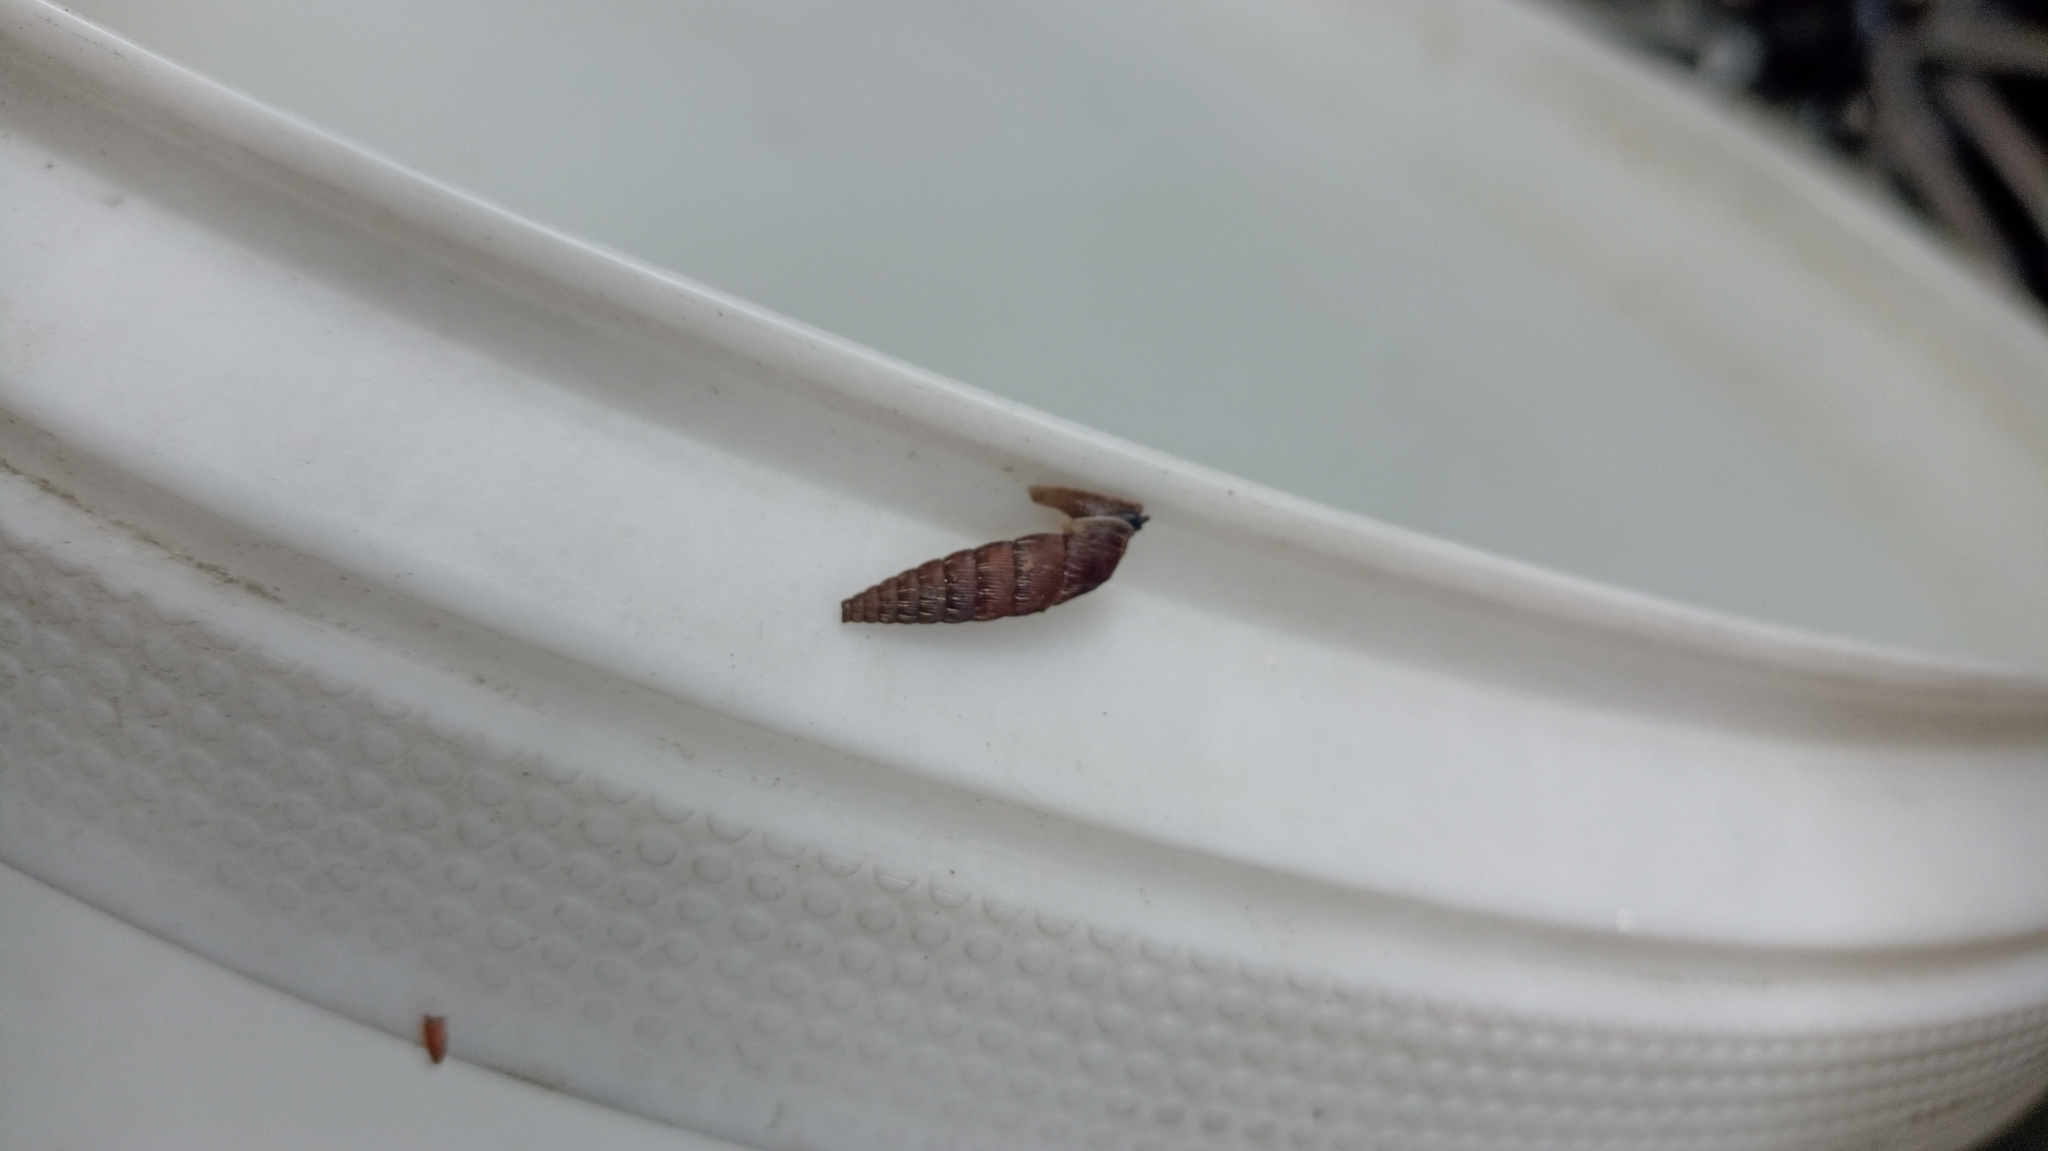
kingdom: Animalia
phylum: Mollusca
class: Gastropoda
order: Stylommatophora
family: Clausiliidae
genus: Alinda
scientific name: Alinda biplicata
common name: Thames door snail
